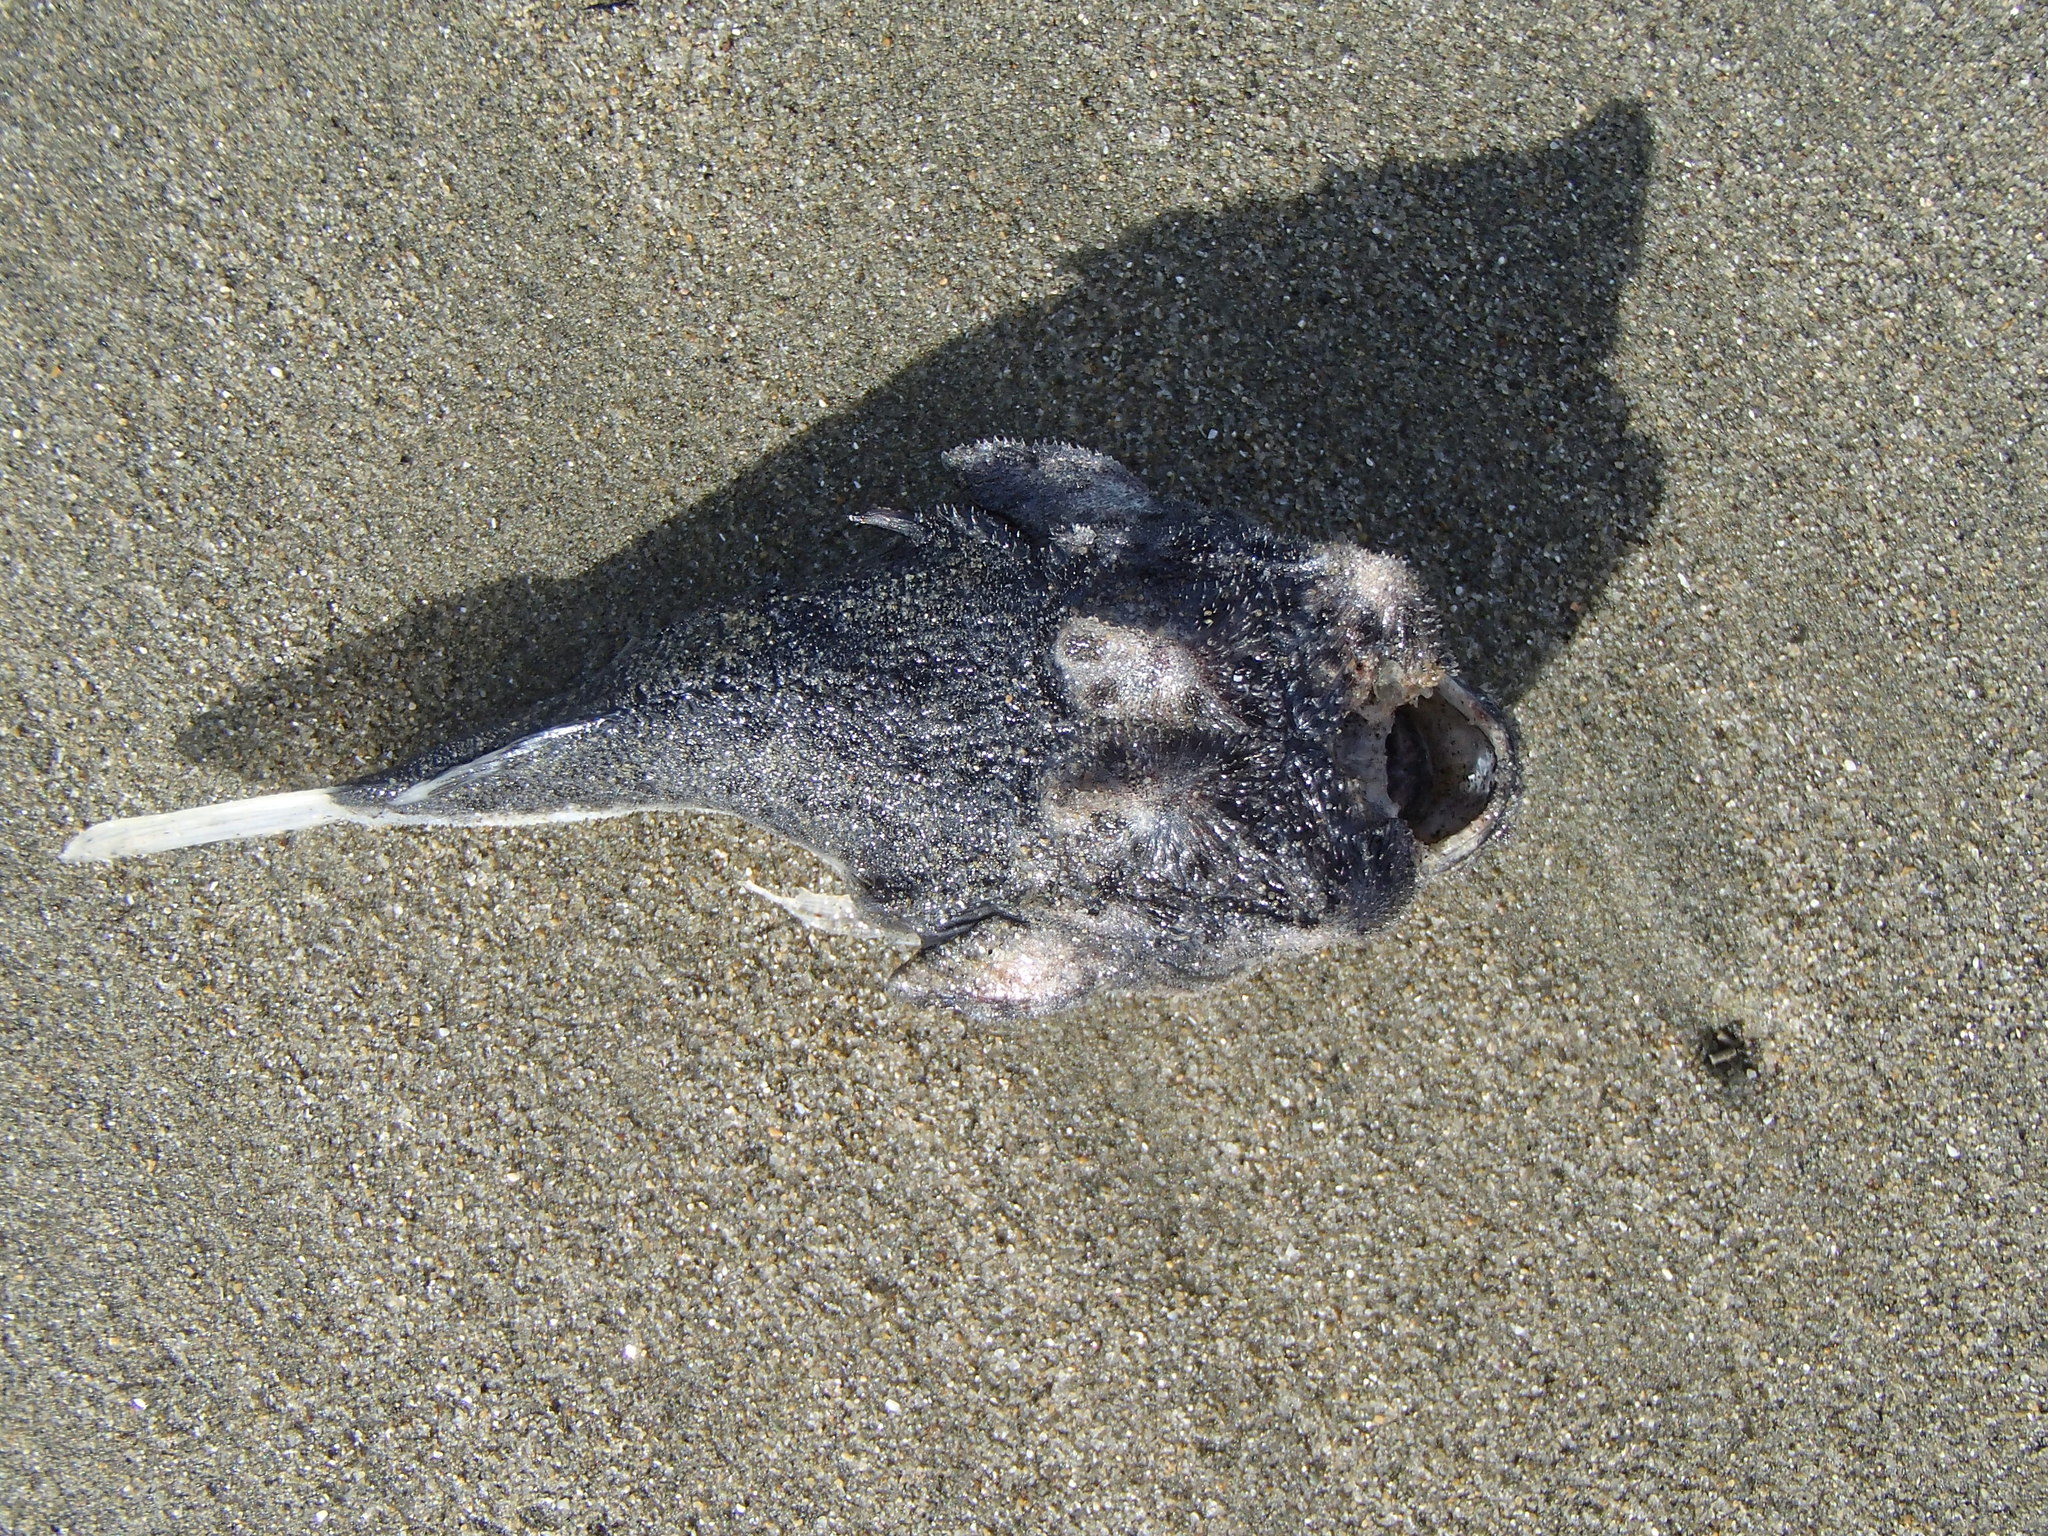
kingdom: Animalia
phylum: Chordata
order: Perciformes
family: Uranoscopidae
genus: Pleuroscopus
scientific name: Pleuroscopus pseudodorsalis
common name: Scaly stargazer
